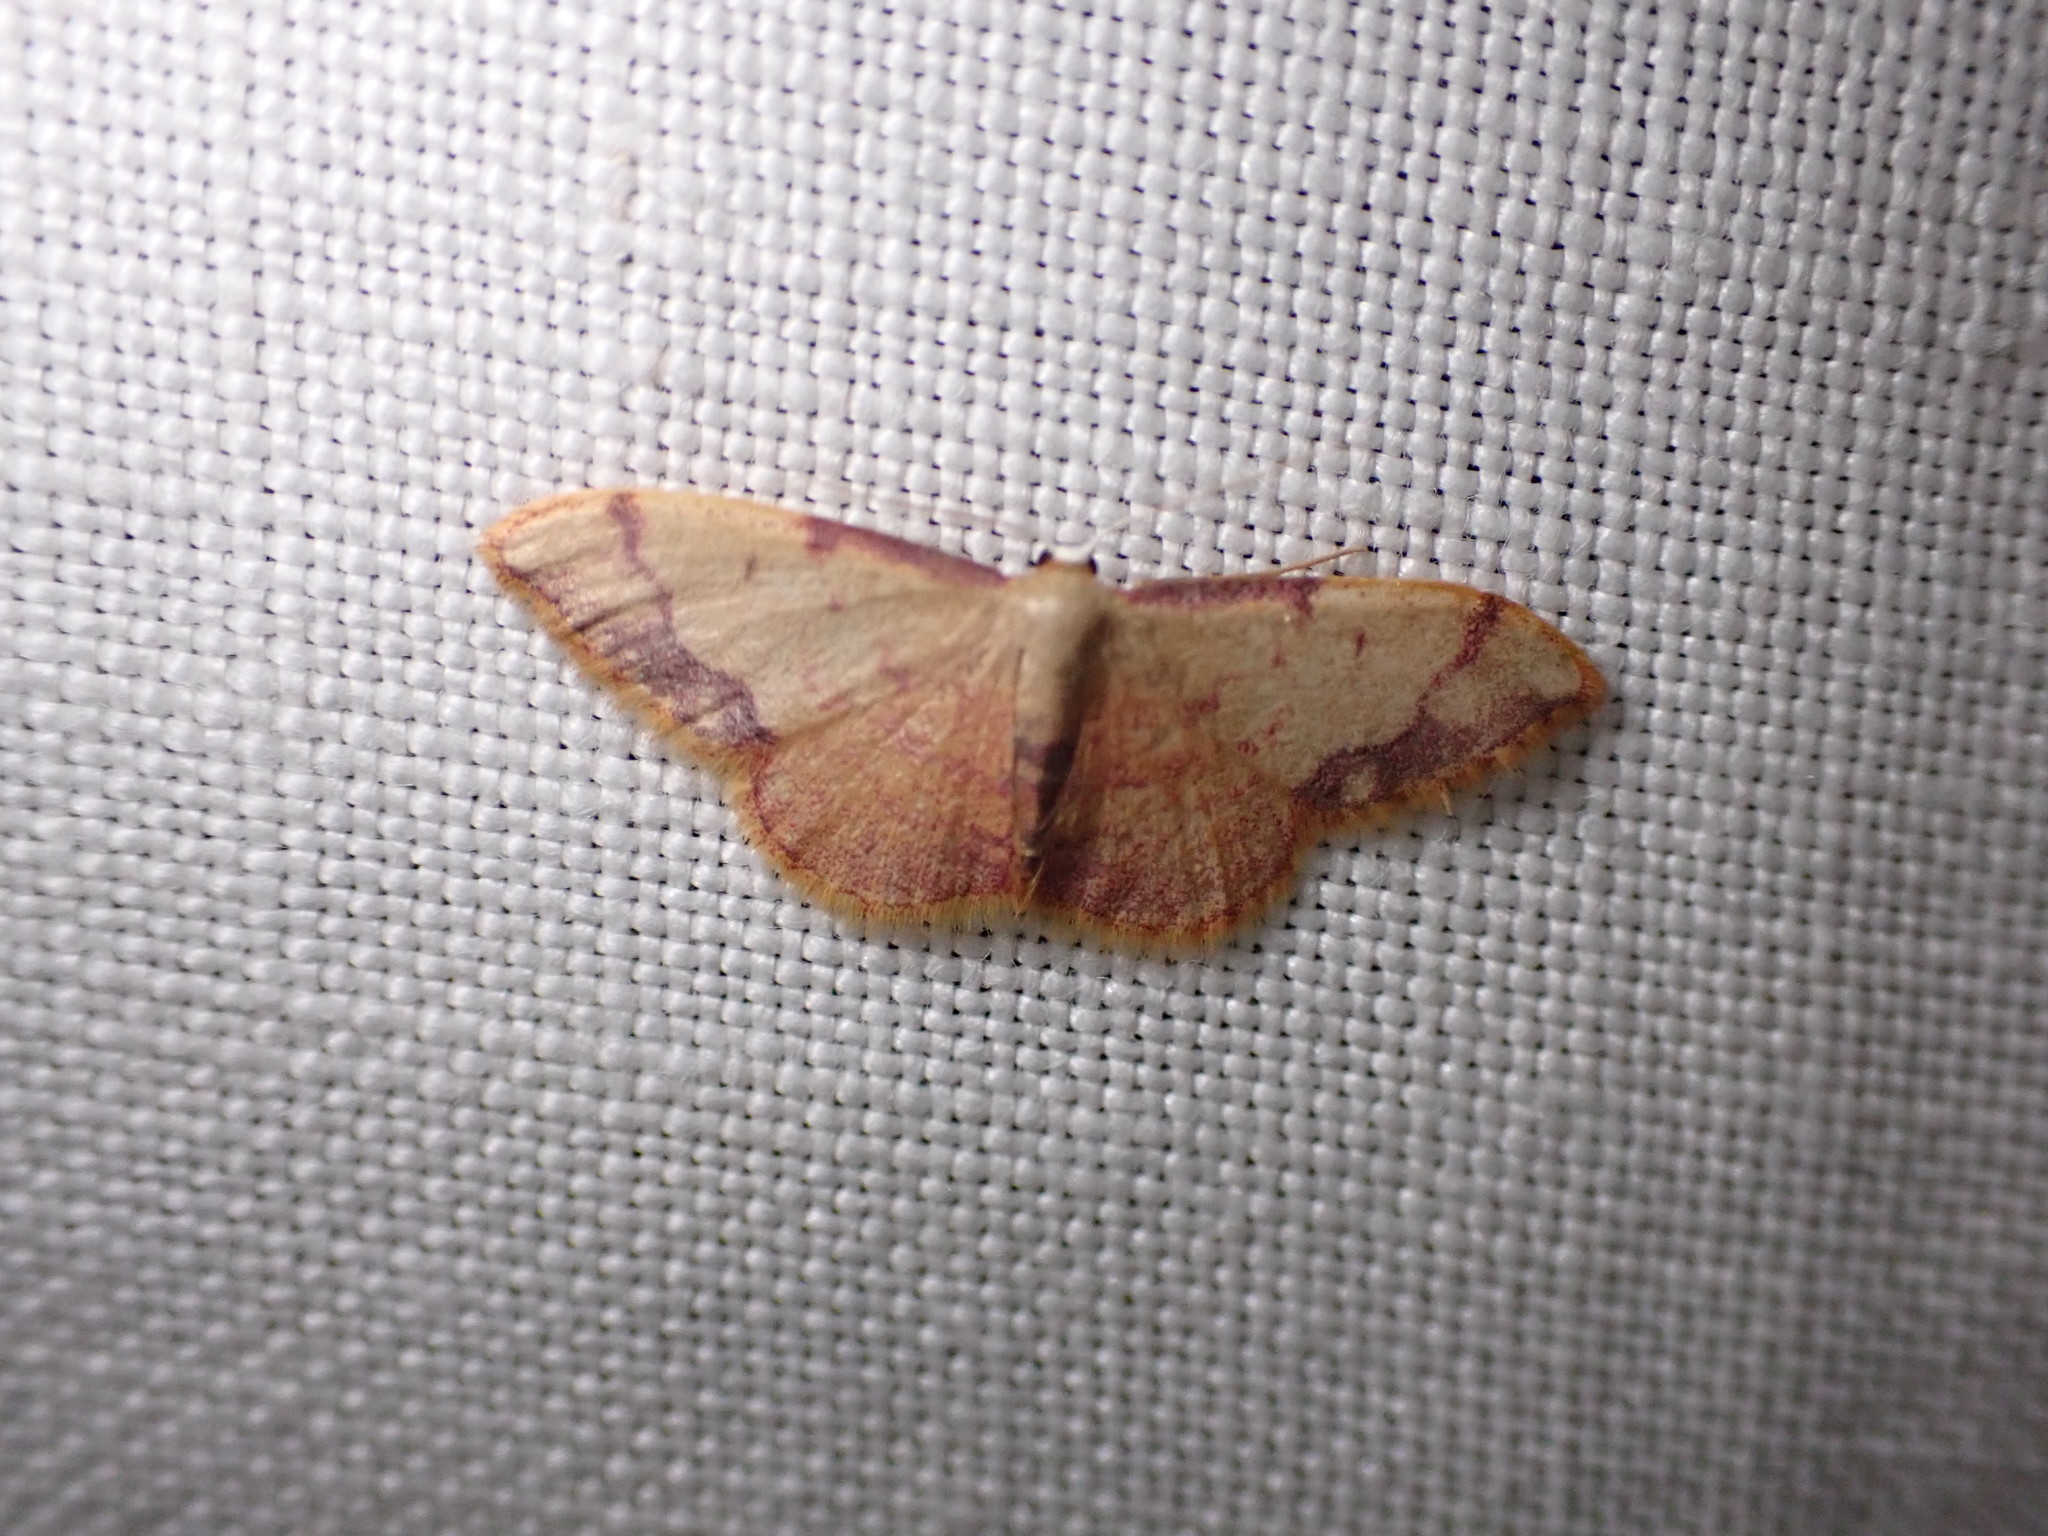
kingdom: Animalia
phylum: Arthropoda
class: Insecta
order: Lepidoptera
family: Geometridae
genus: Idaea
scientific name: Idaea ostrinaria
